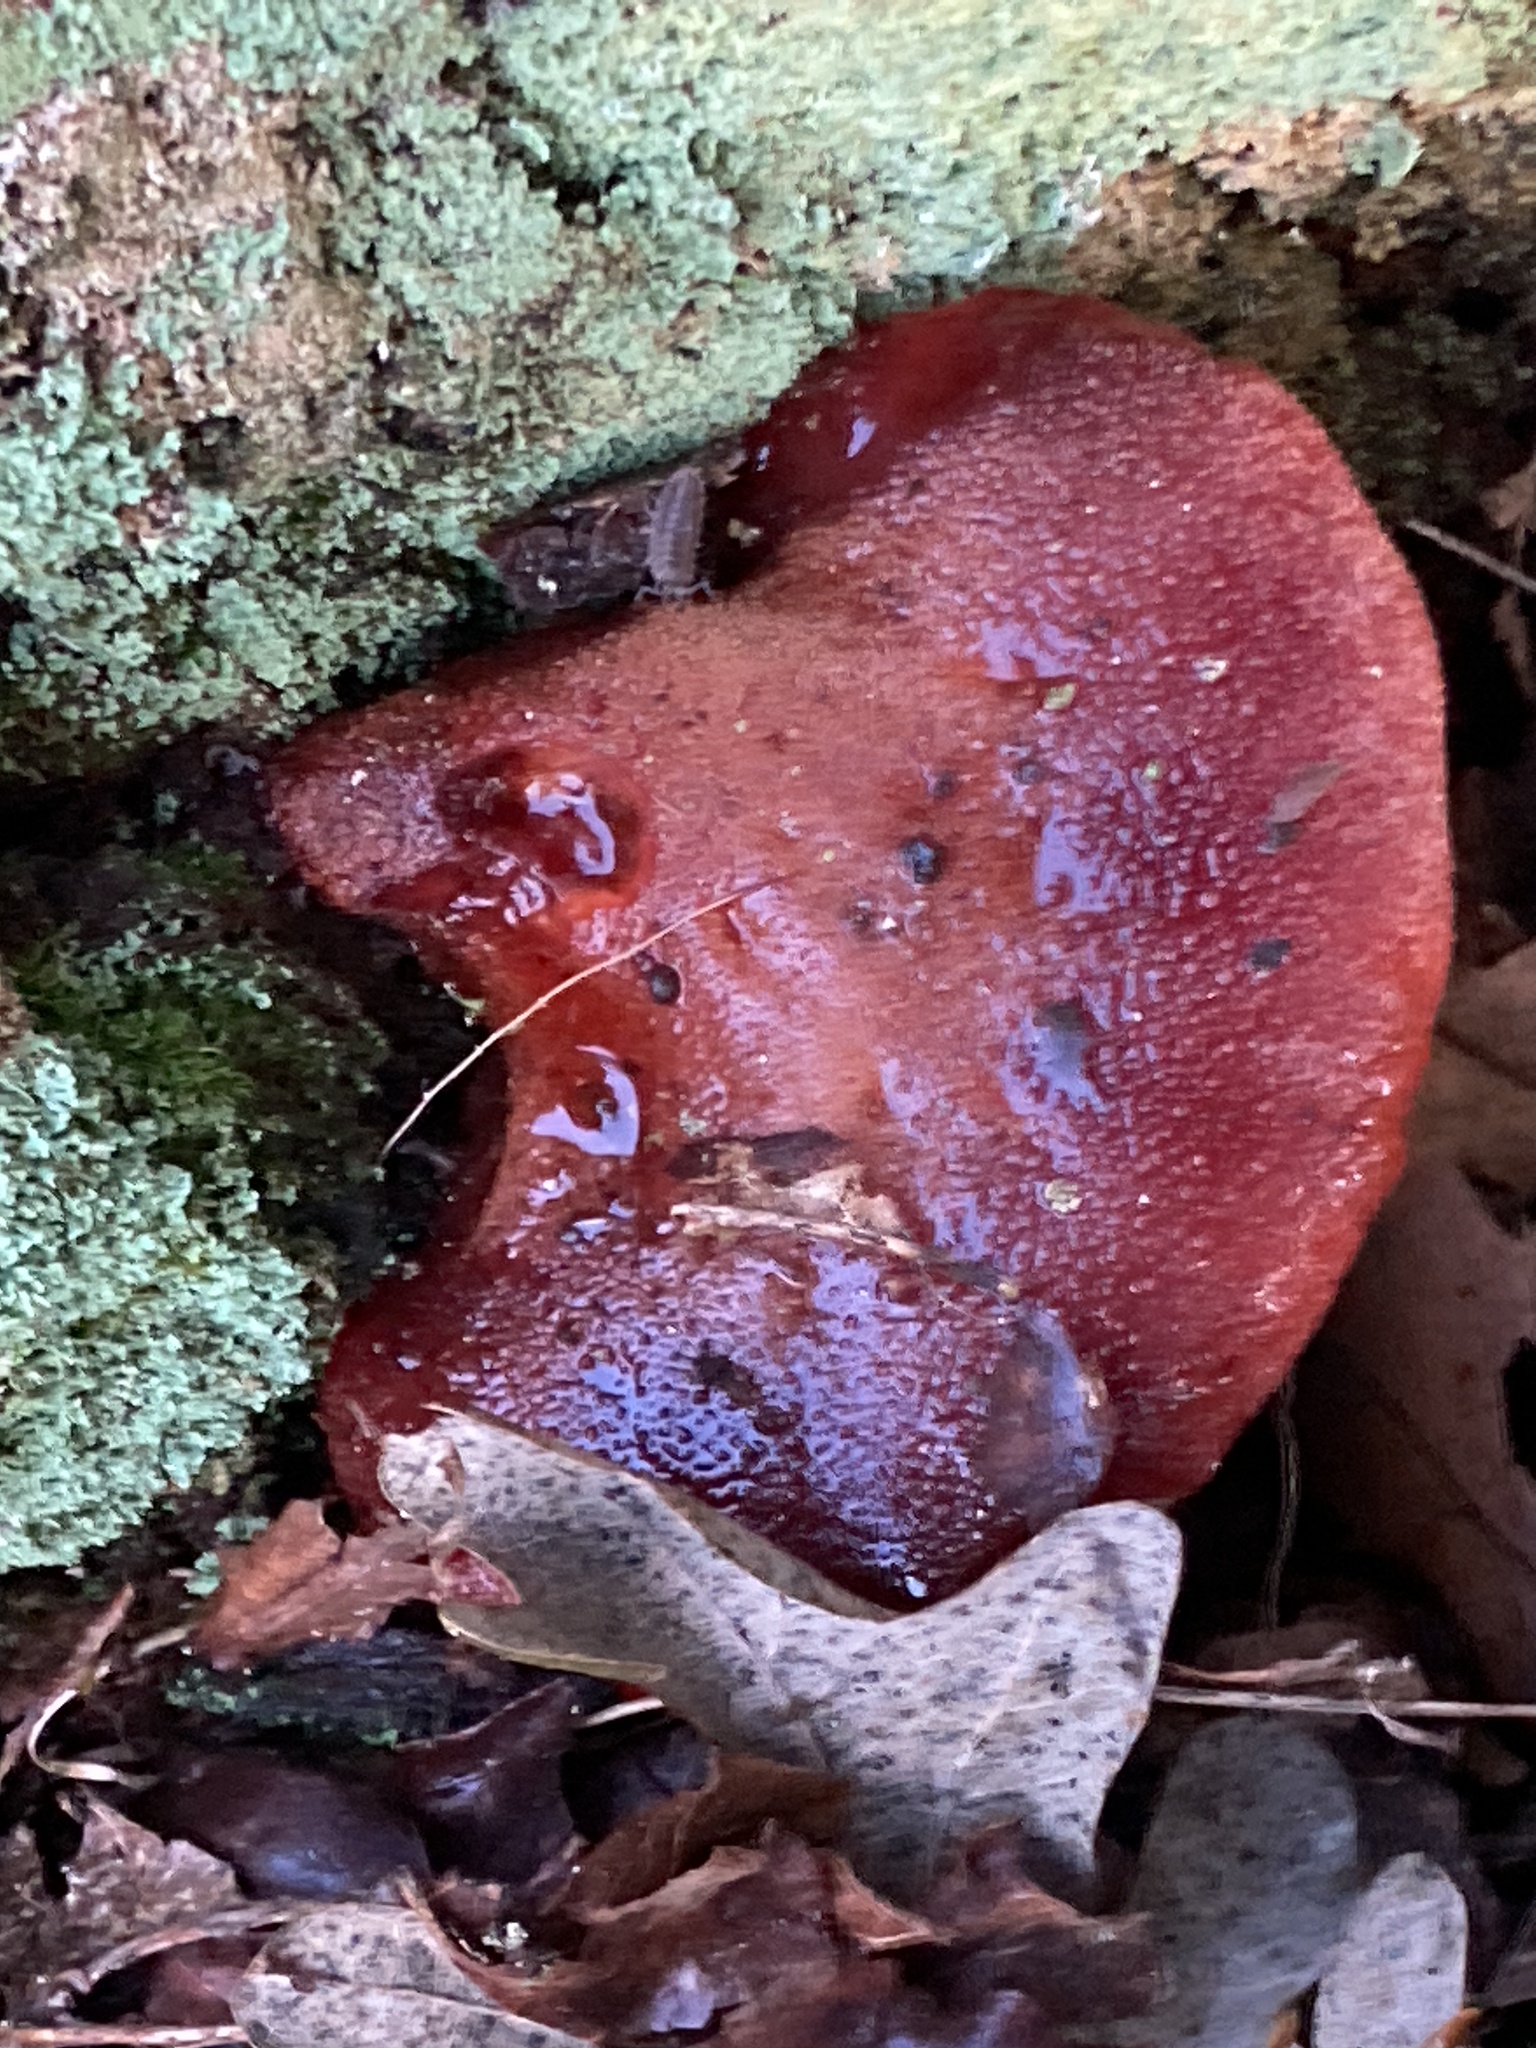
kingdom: Fungi
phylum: Basidiomycota
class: Agaricomycetes
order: Agaricales
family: Fistulinaceae
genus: Fistulina
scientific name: Fistulina hepatica
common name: Beef-steak fungus
